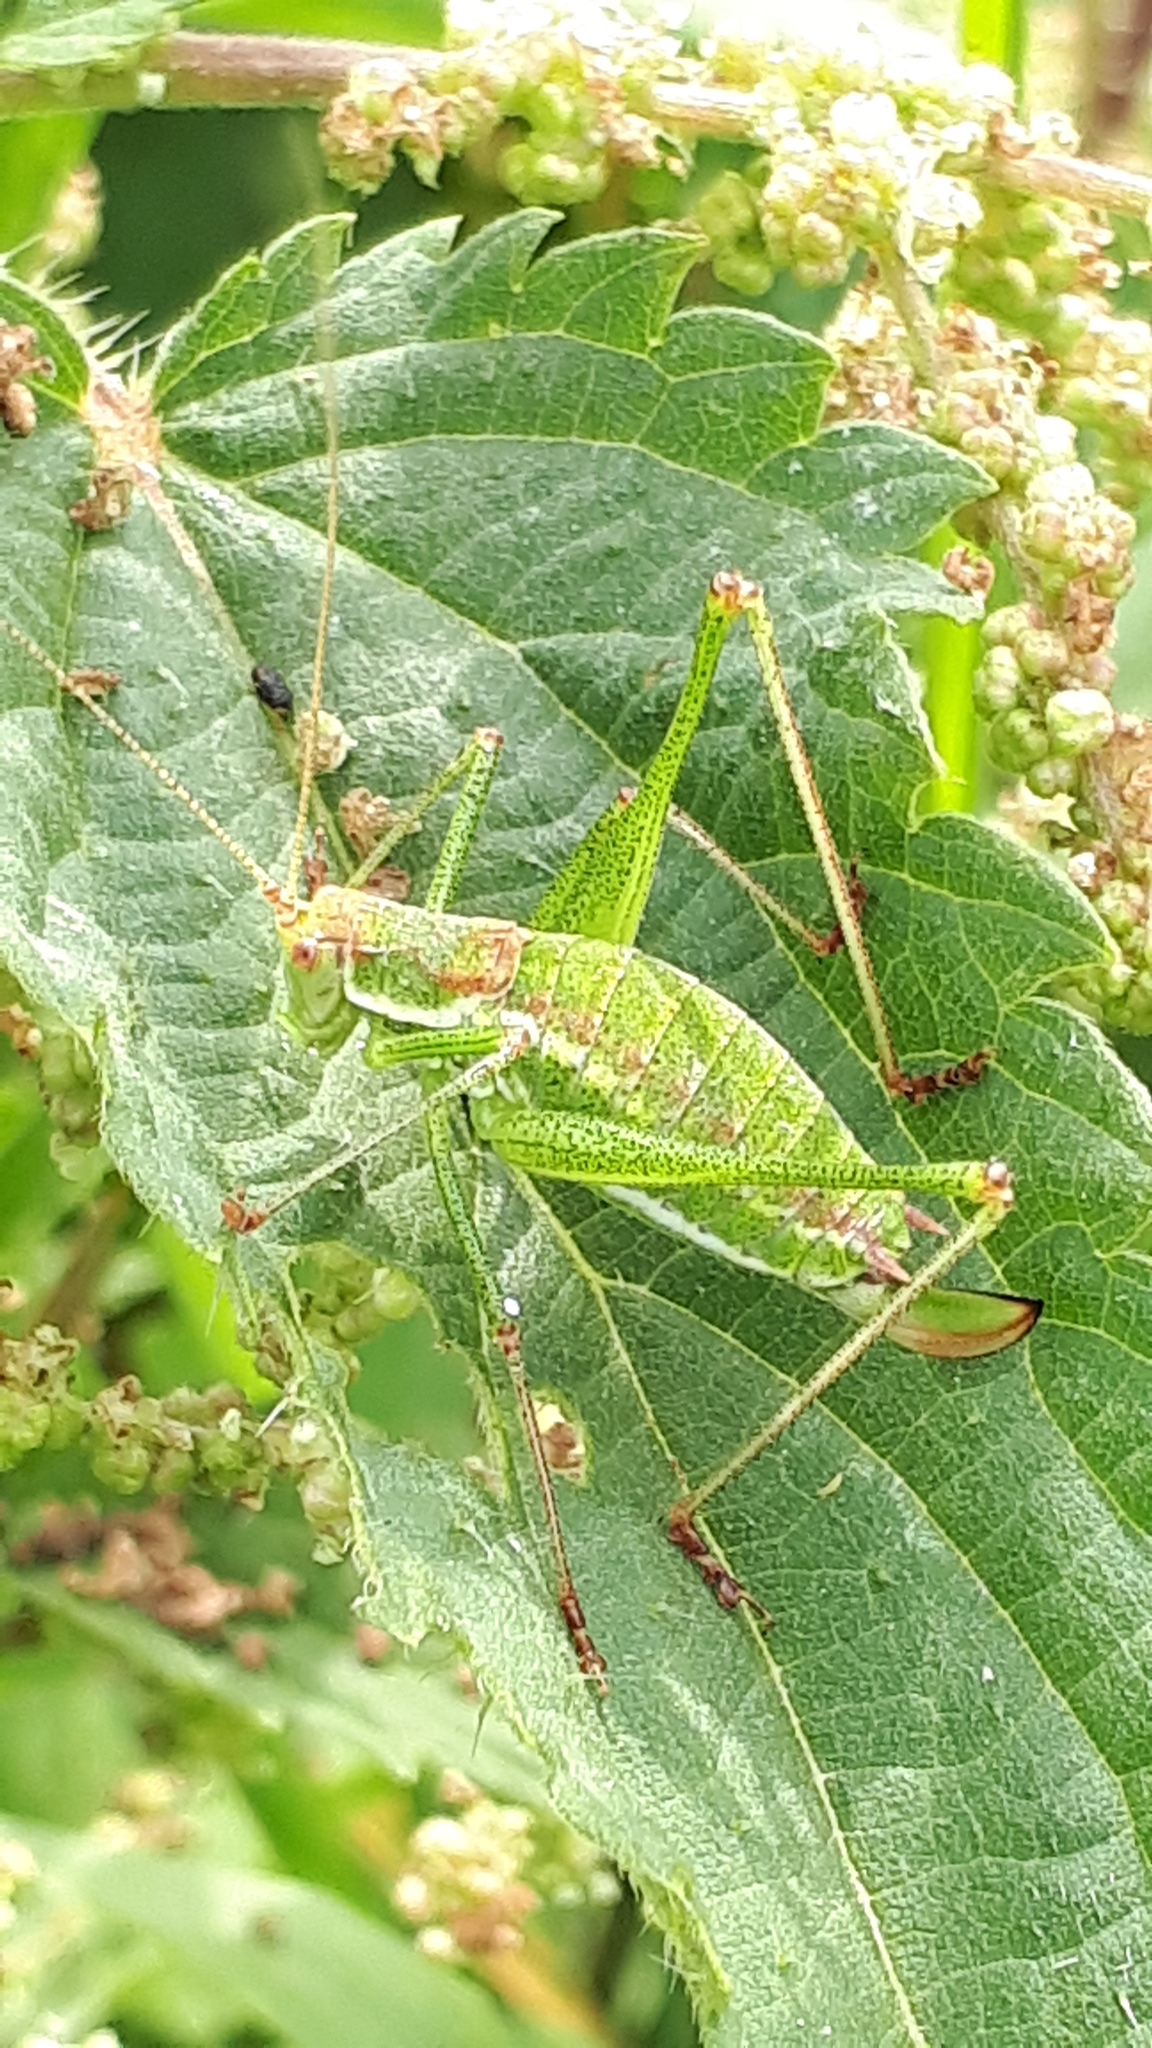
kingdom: Animalia
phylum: Arthropoda
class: Insecta
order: Orthoptera
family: Tettigoniidae
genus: Leptophyes
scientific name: Leptophyes albovittata
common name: Striped bush-cricket
